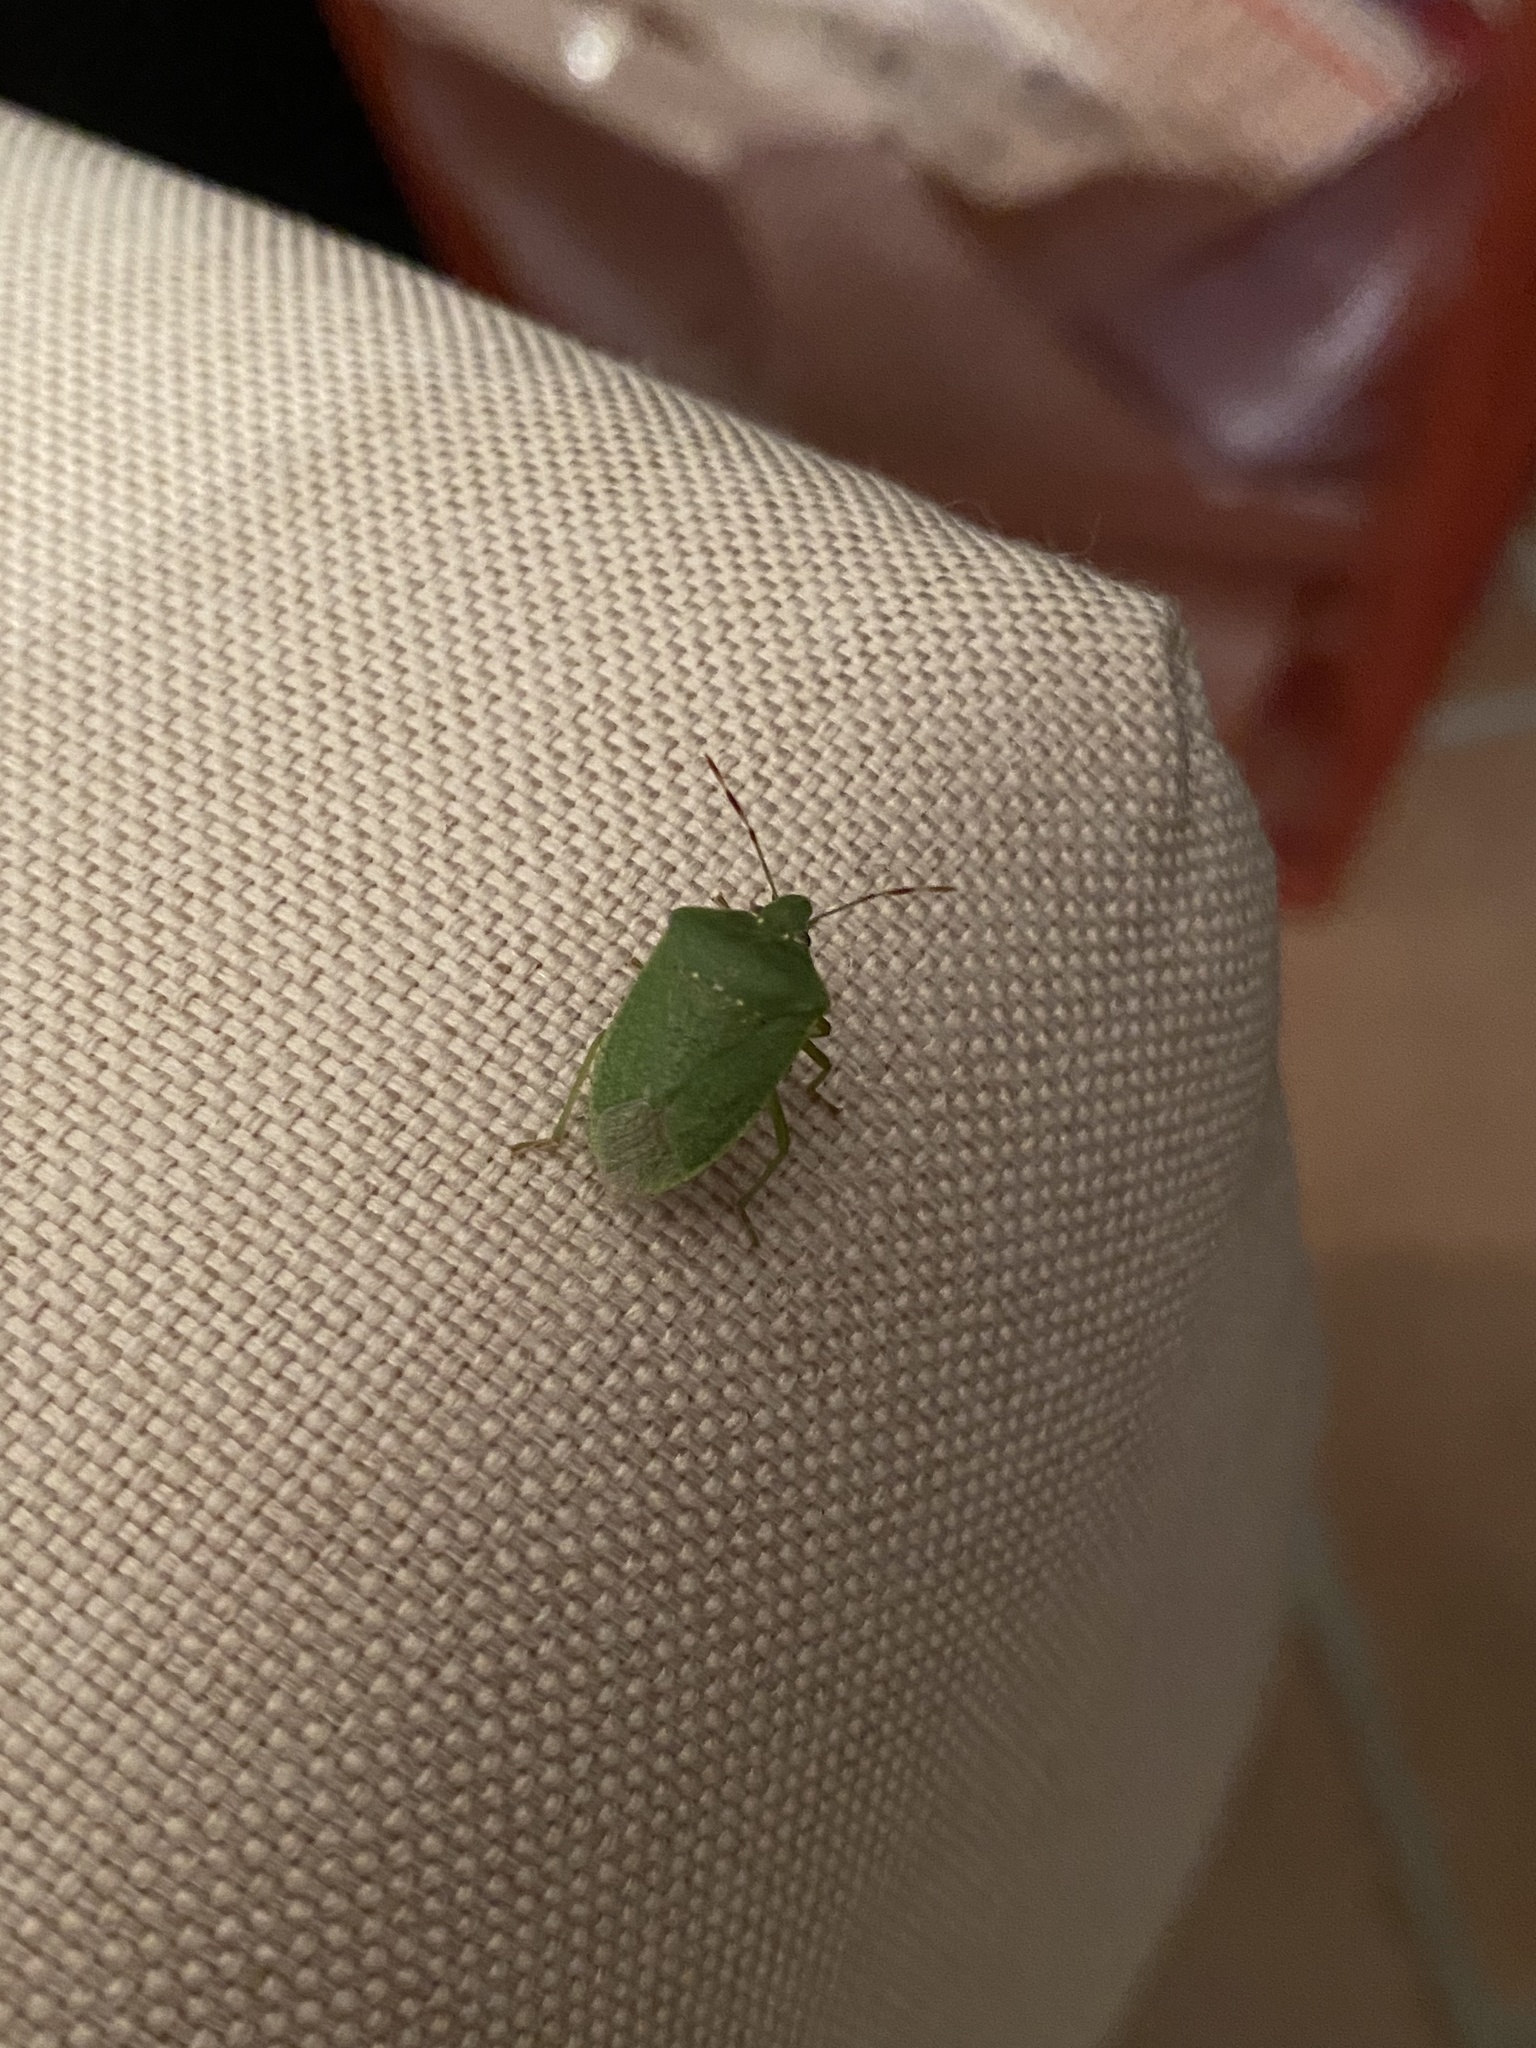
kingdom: Animalia
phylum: Arthropoda
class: Insecta
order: Hemiptera
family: Pentatomidae
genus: Nezara
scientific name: Nezara viridula
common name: Southern green stink bug
